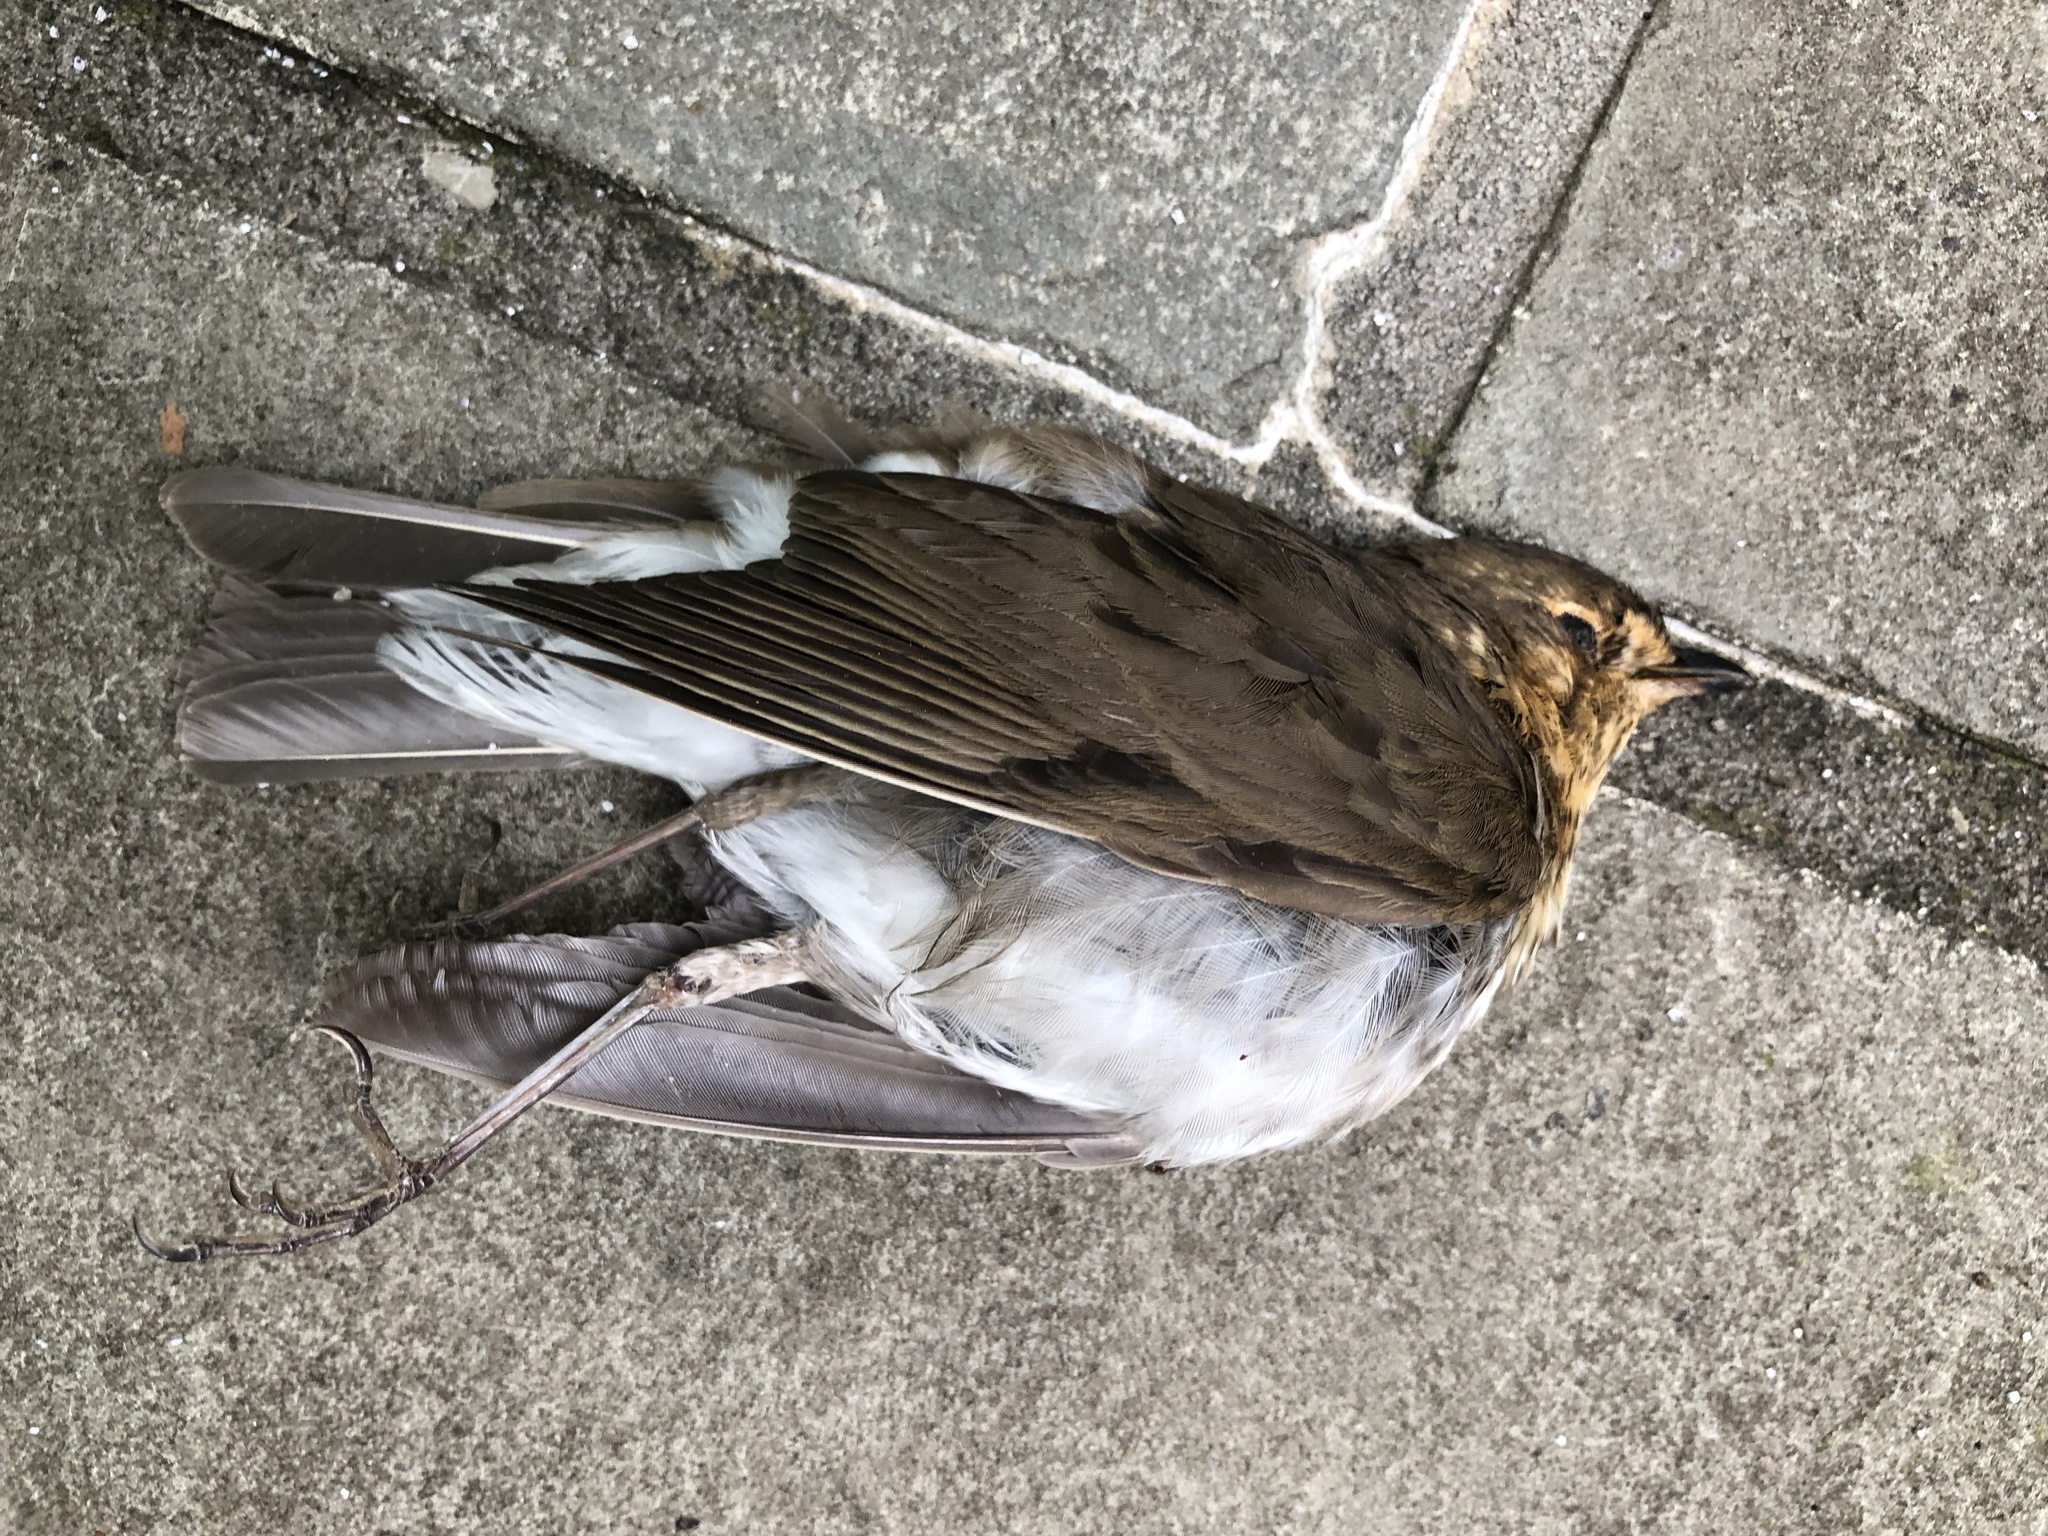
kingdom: Animalia
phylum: Chordata
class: Aves
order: Passeriformes
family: Turdidae
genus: Catharus
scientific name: Catharus ustulatus
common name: Swainson's thrush
